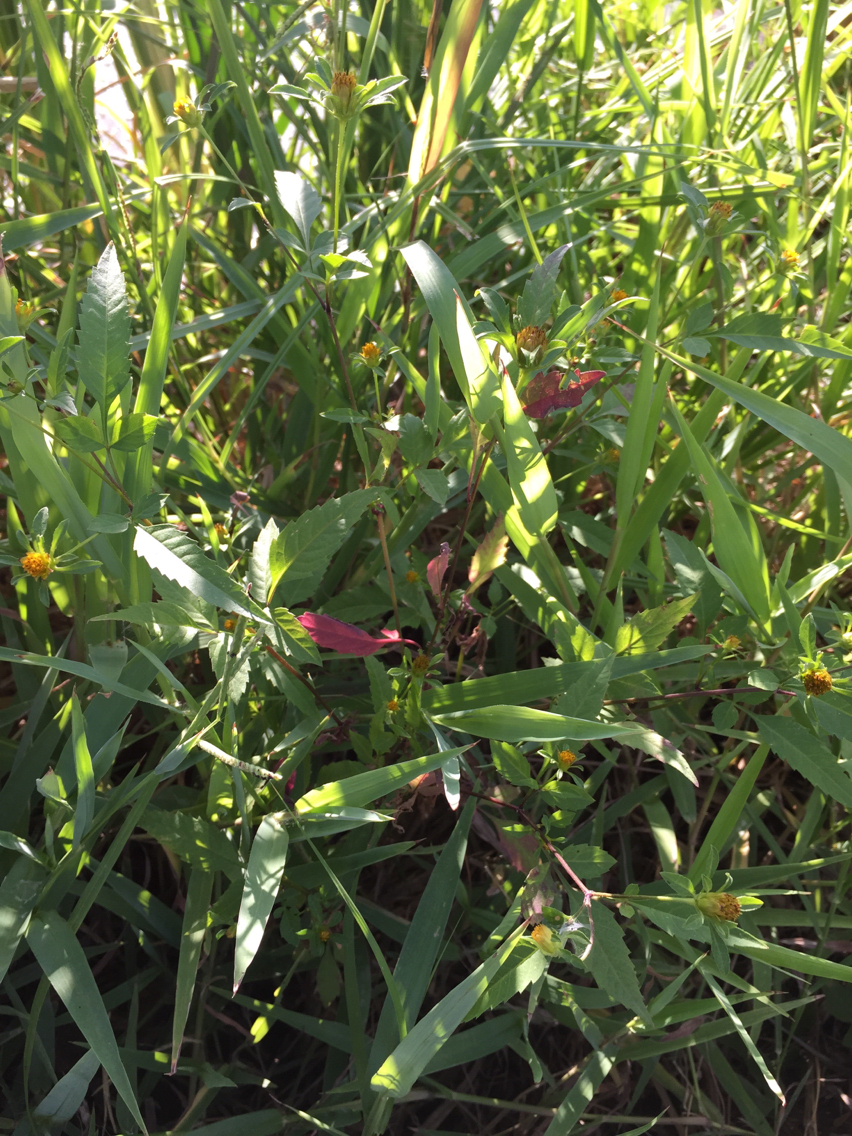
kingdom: Plantae
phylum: Tracheophyta
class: Magnoliopsida
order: Asterales
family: Asteraceae
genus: Bidens
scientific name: Bidens frondosa
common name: Beggarticks
